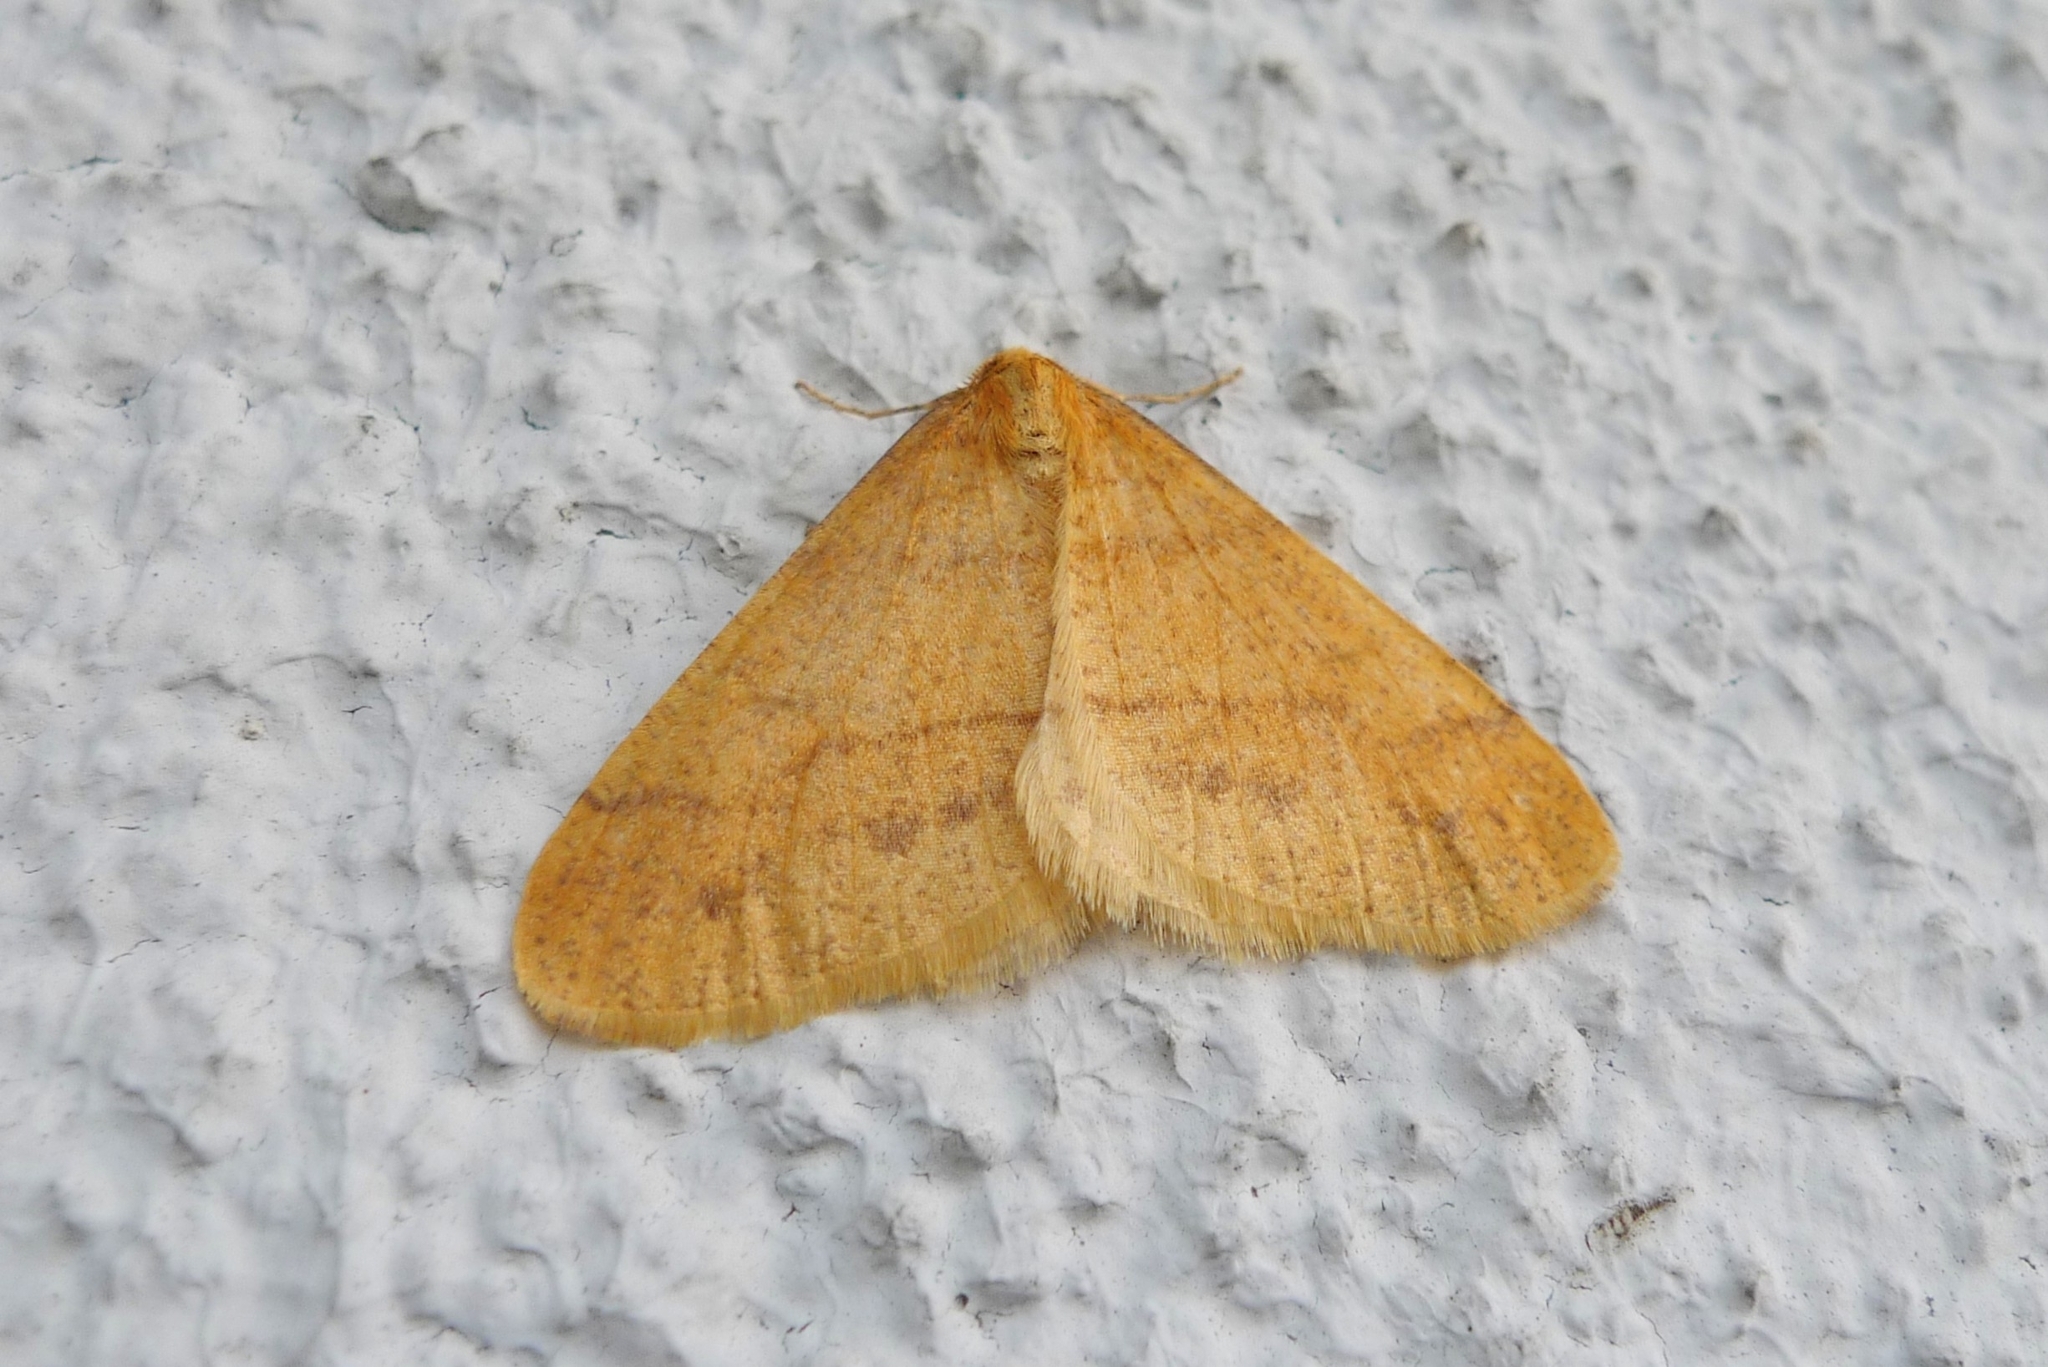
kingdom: Animalia
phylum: Arthropoda
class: Insecta
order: Lepidoptera
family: Geometridae
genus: Agriopis
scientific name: Agriopis aurantiaria
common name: Scarce umber
